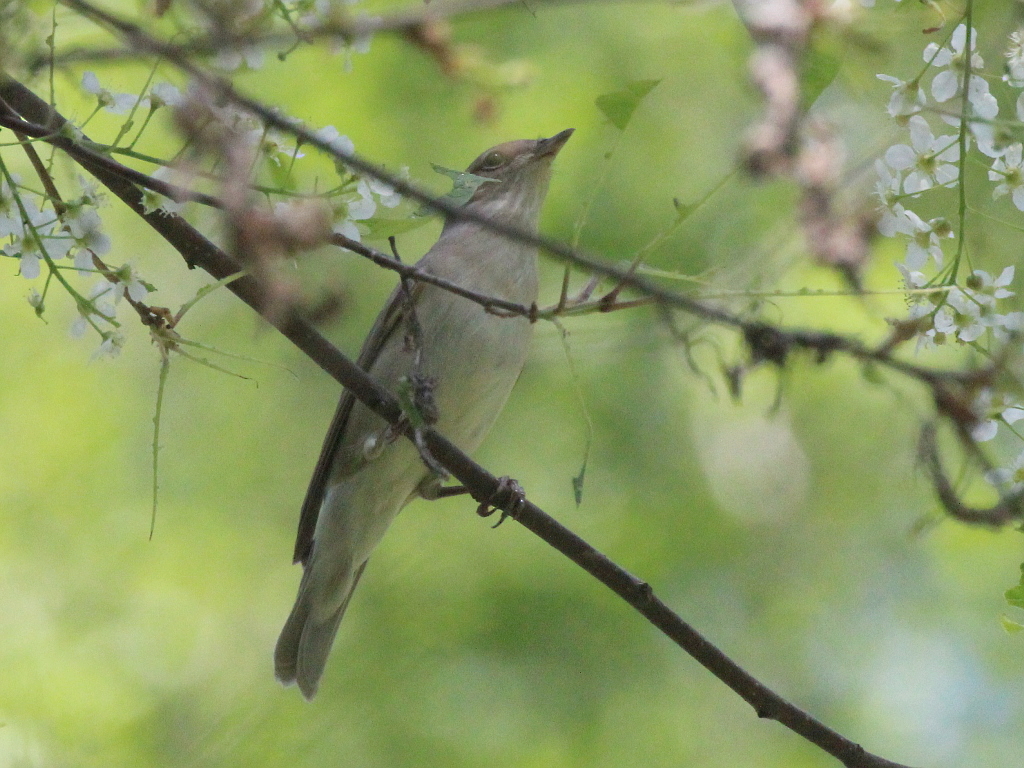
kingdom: Animalia
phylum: Chordata
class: Aves
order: Passeriformes
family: Sylviidae
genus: Sylvia
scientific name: Sylvia borin
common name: Garden warbler
